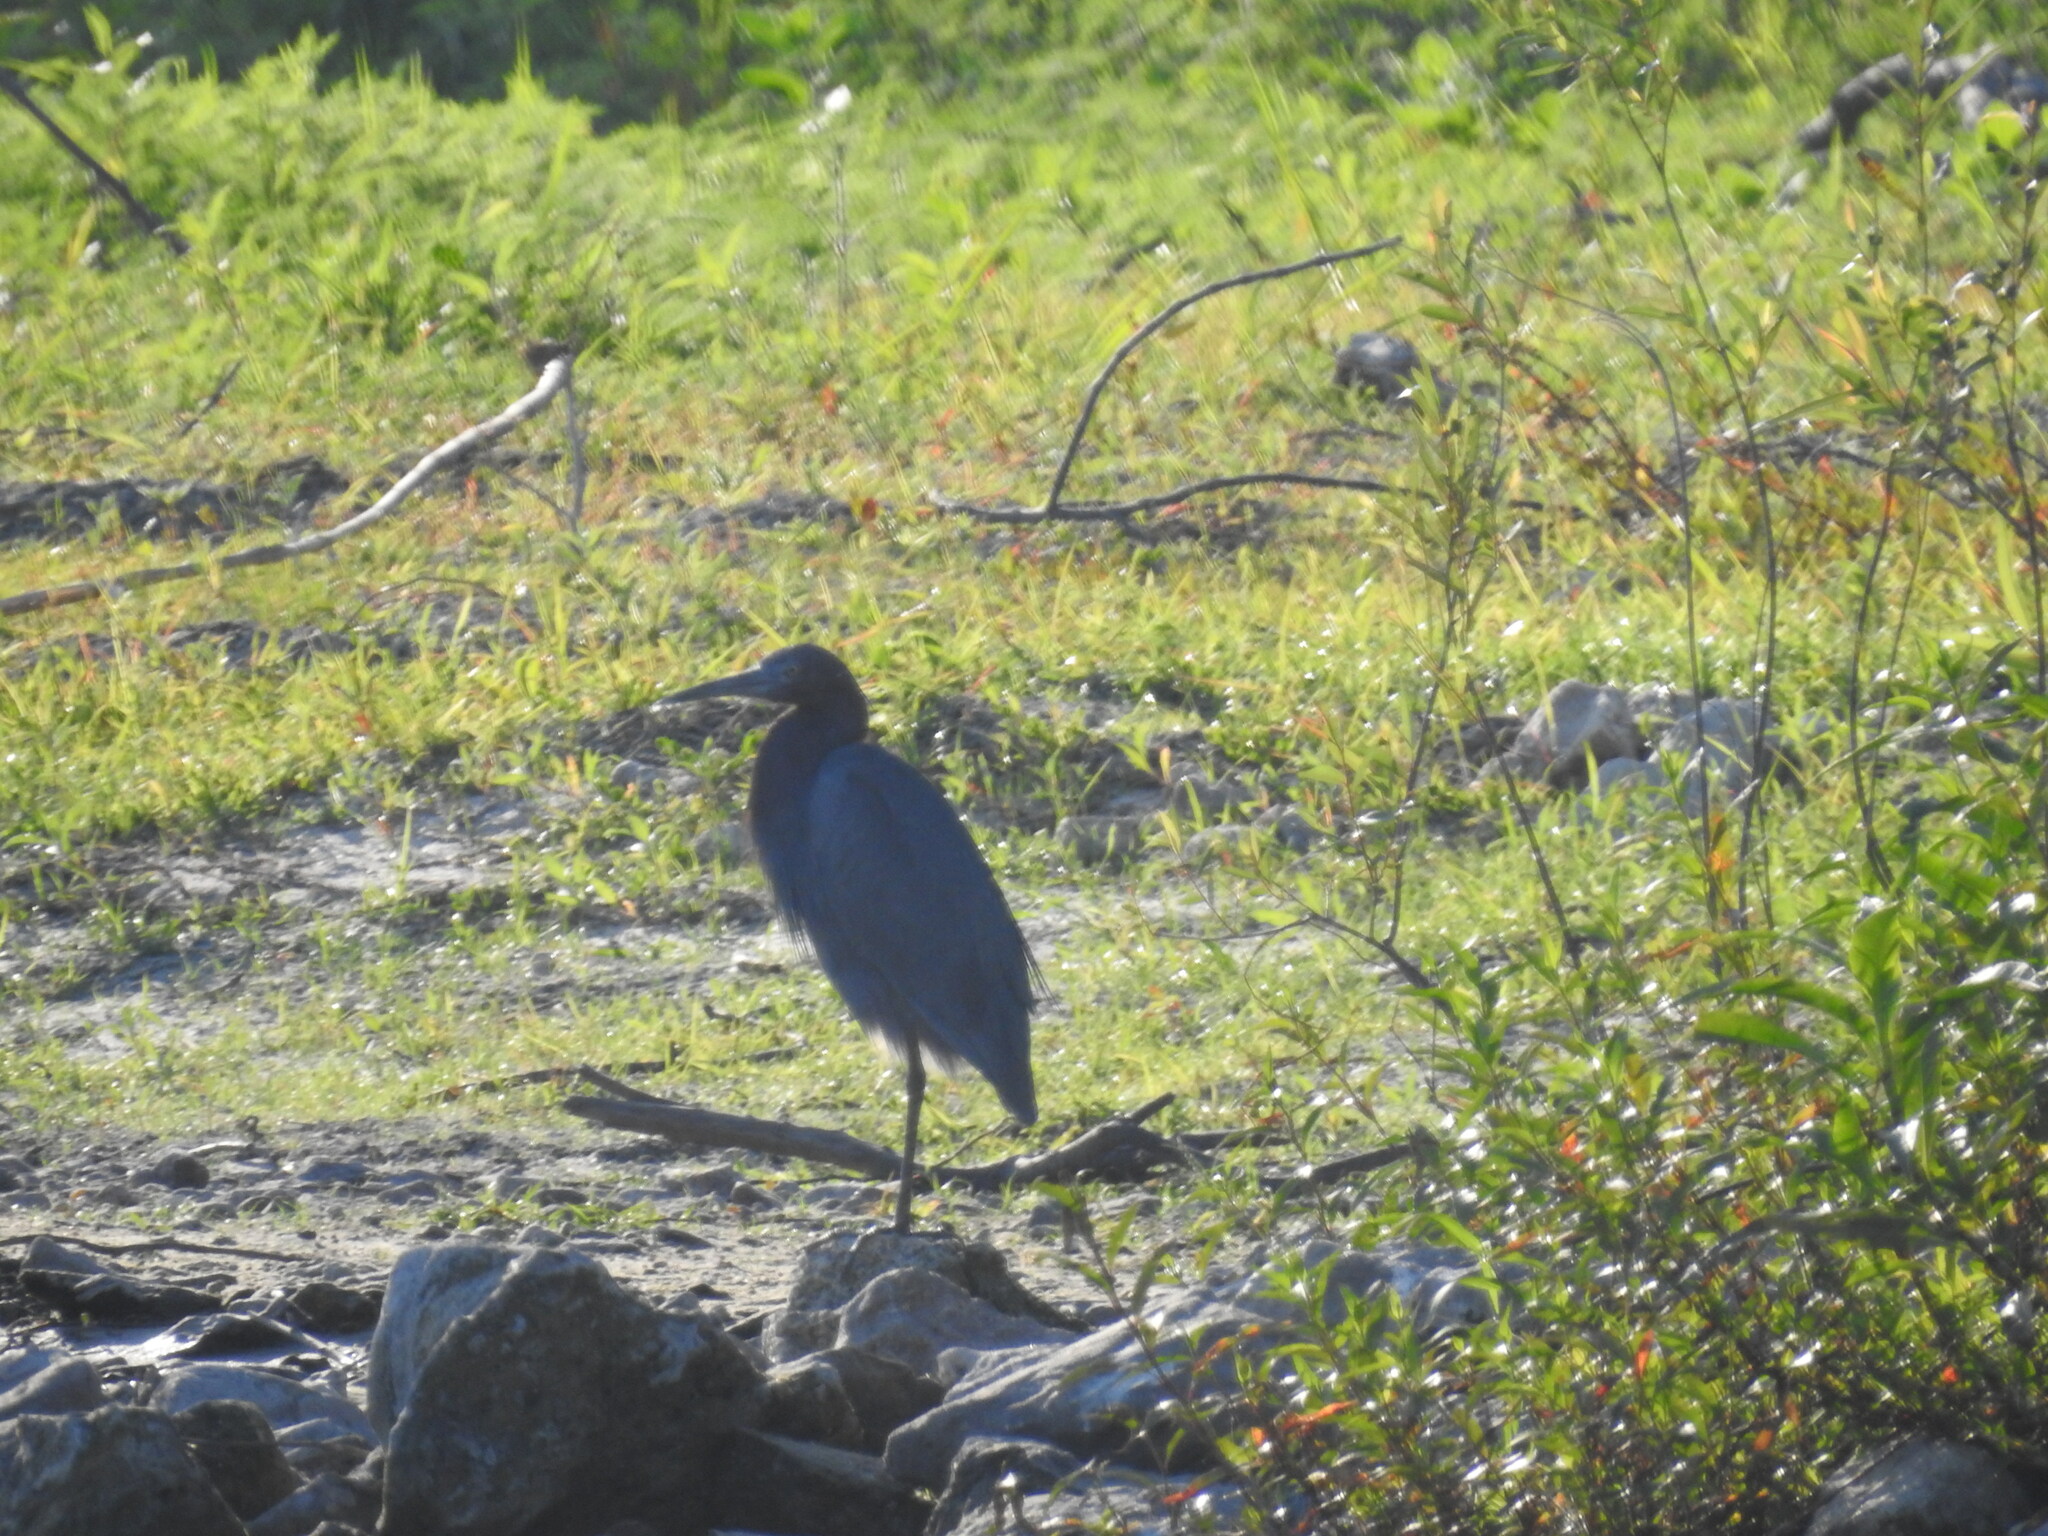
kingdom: Animalia
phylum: Chordata
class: Aves
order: Pelecaniformes
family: Ardeidae
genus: Egretta
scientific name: Egretta rufescens
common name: Reddish egret
